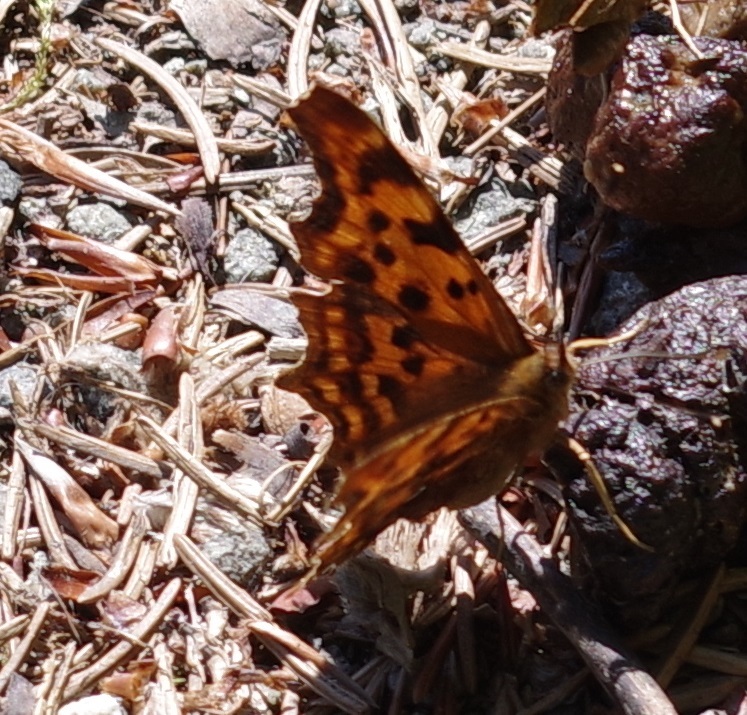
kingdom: Animalia
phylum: Arthropoda
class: Insecta
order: Lepidoptera
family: Nymphalidae
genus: Polygonia
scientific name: Polygonia c-album
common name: Comma
